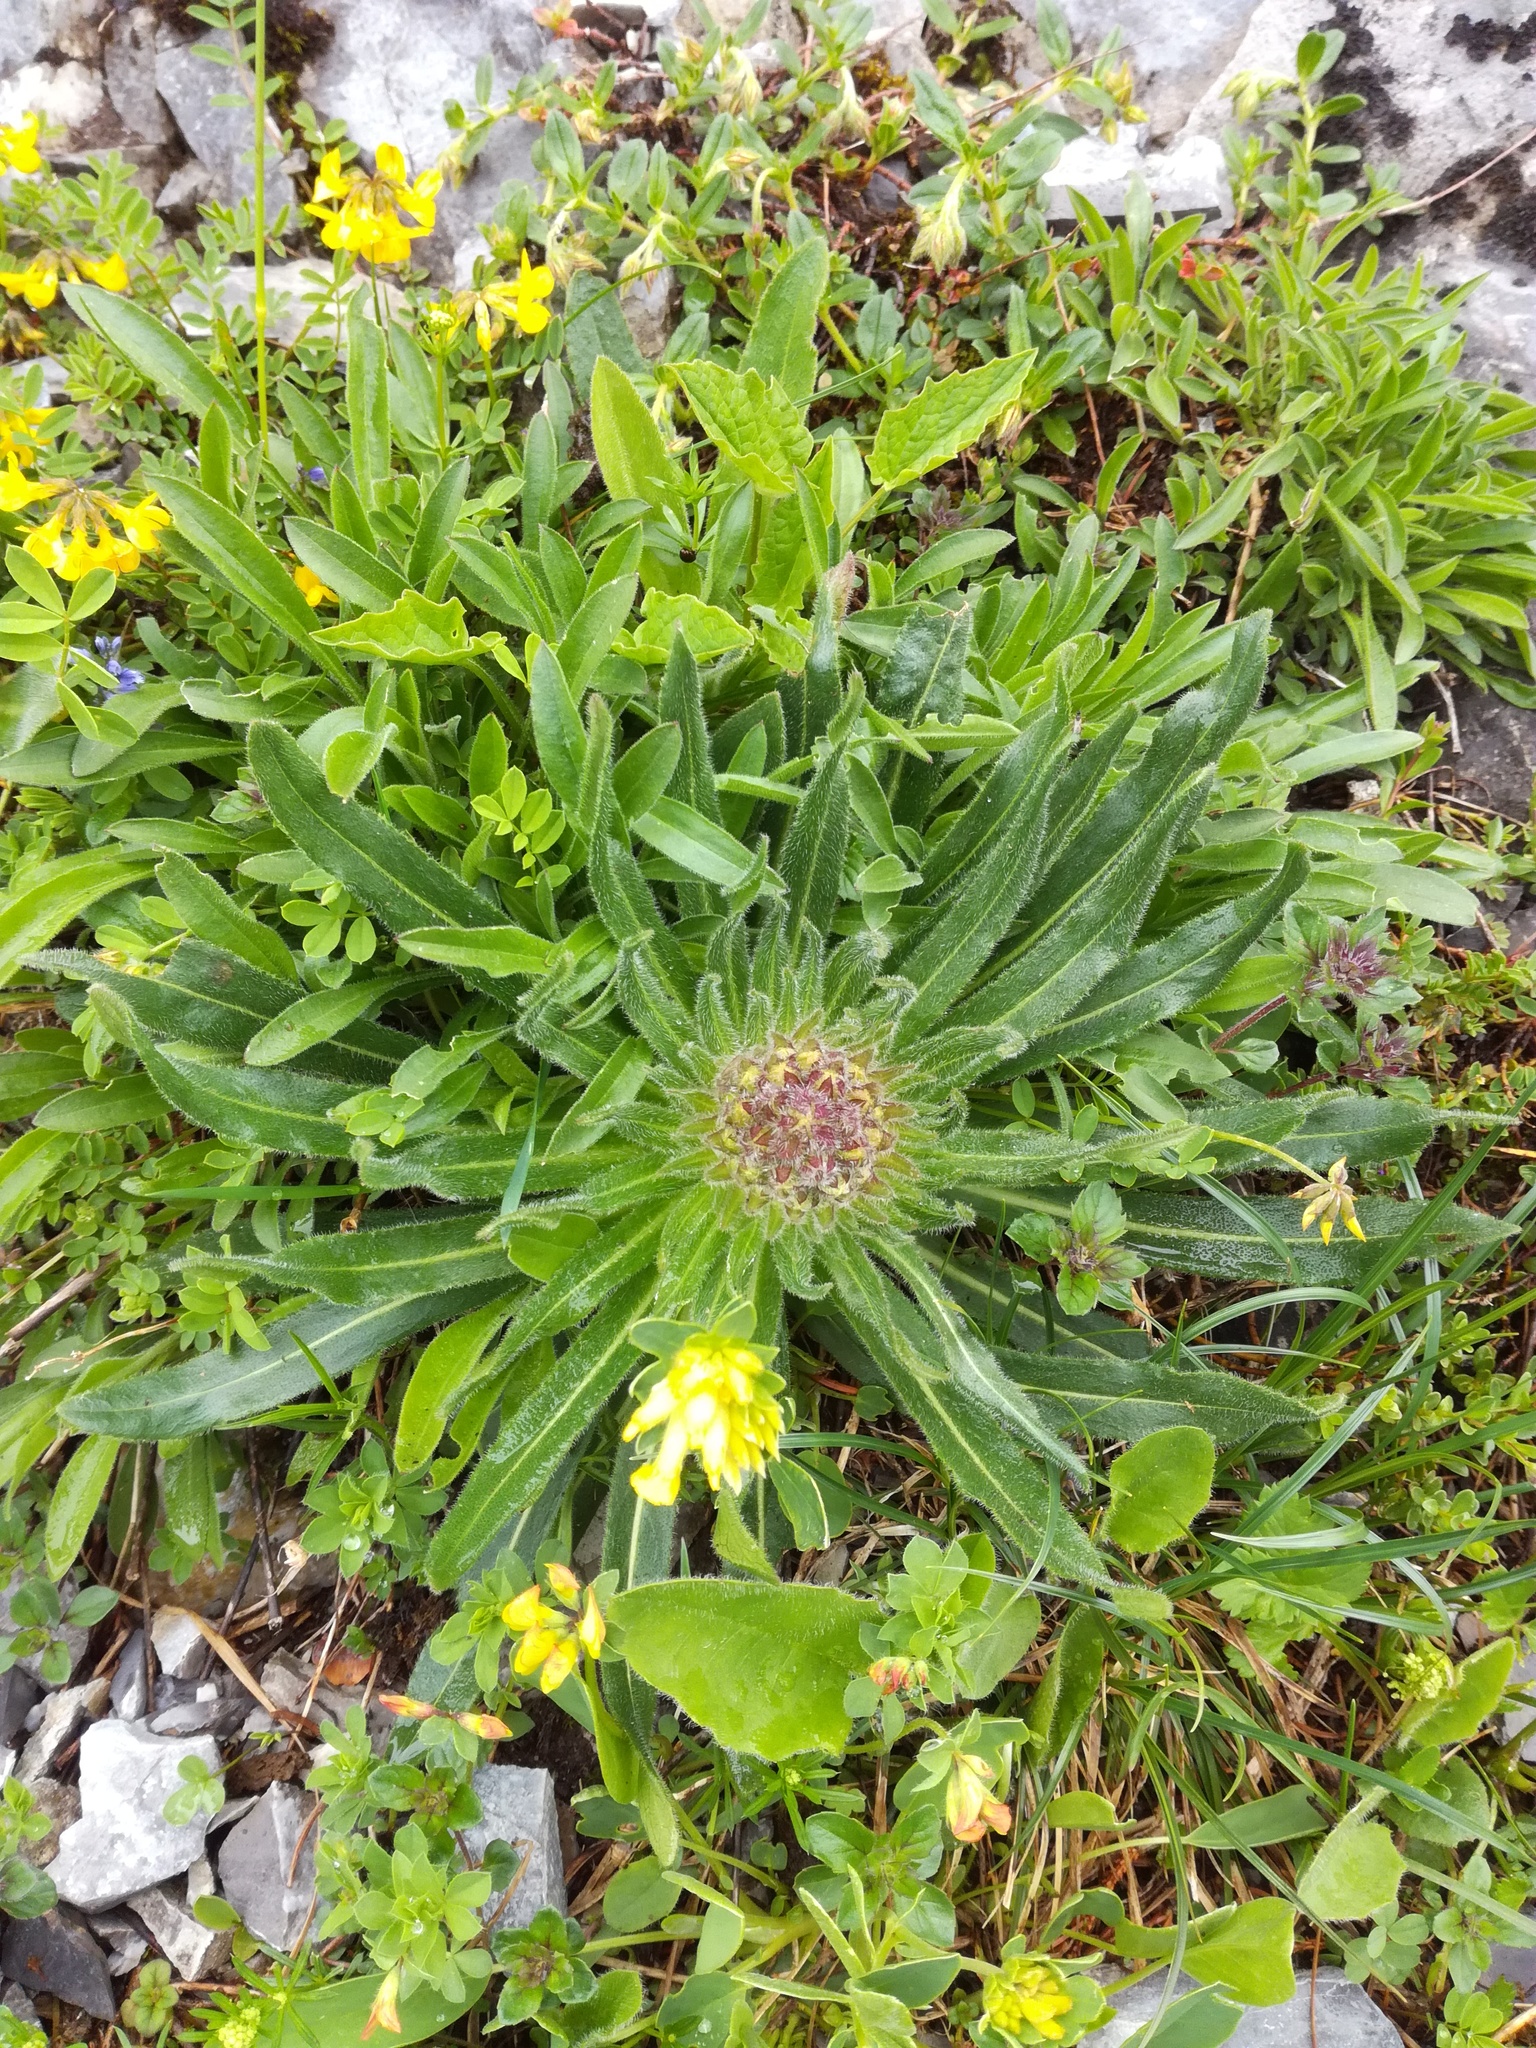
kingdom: Plantae
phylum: Tracheophyta
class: Magnoliopsida
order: Asterales
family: Campanulaceae
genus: Campanula
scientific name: Campanula thyrsoides
